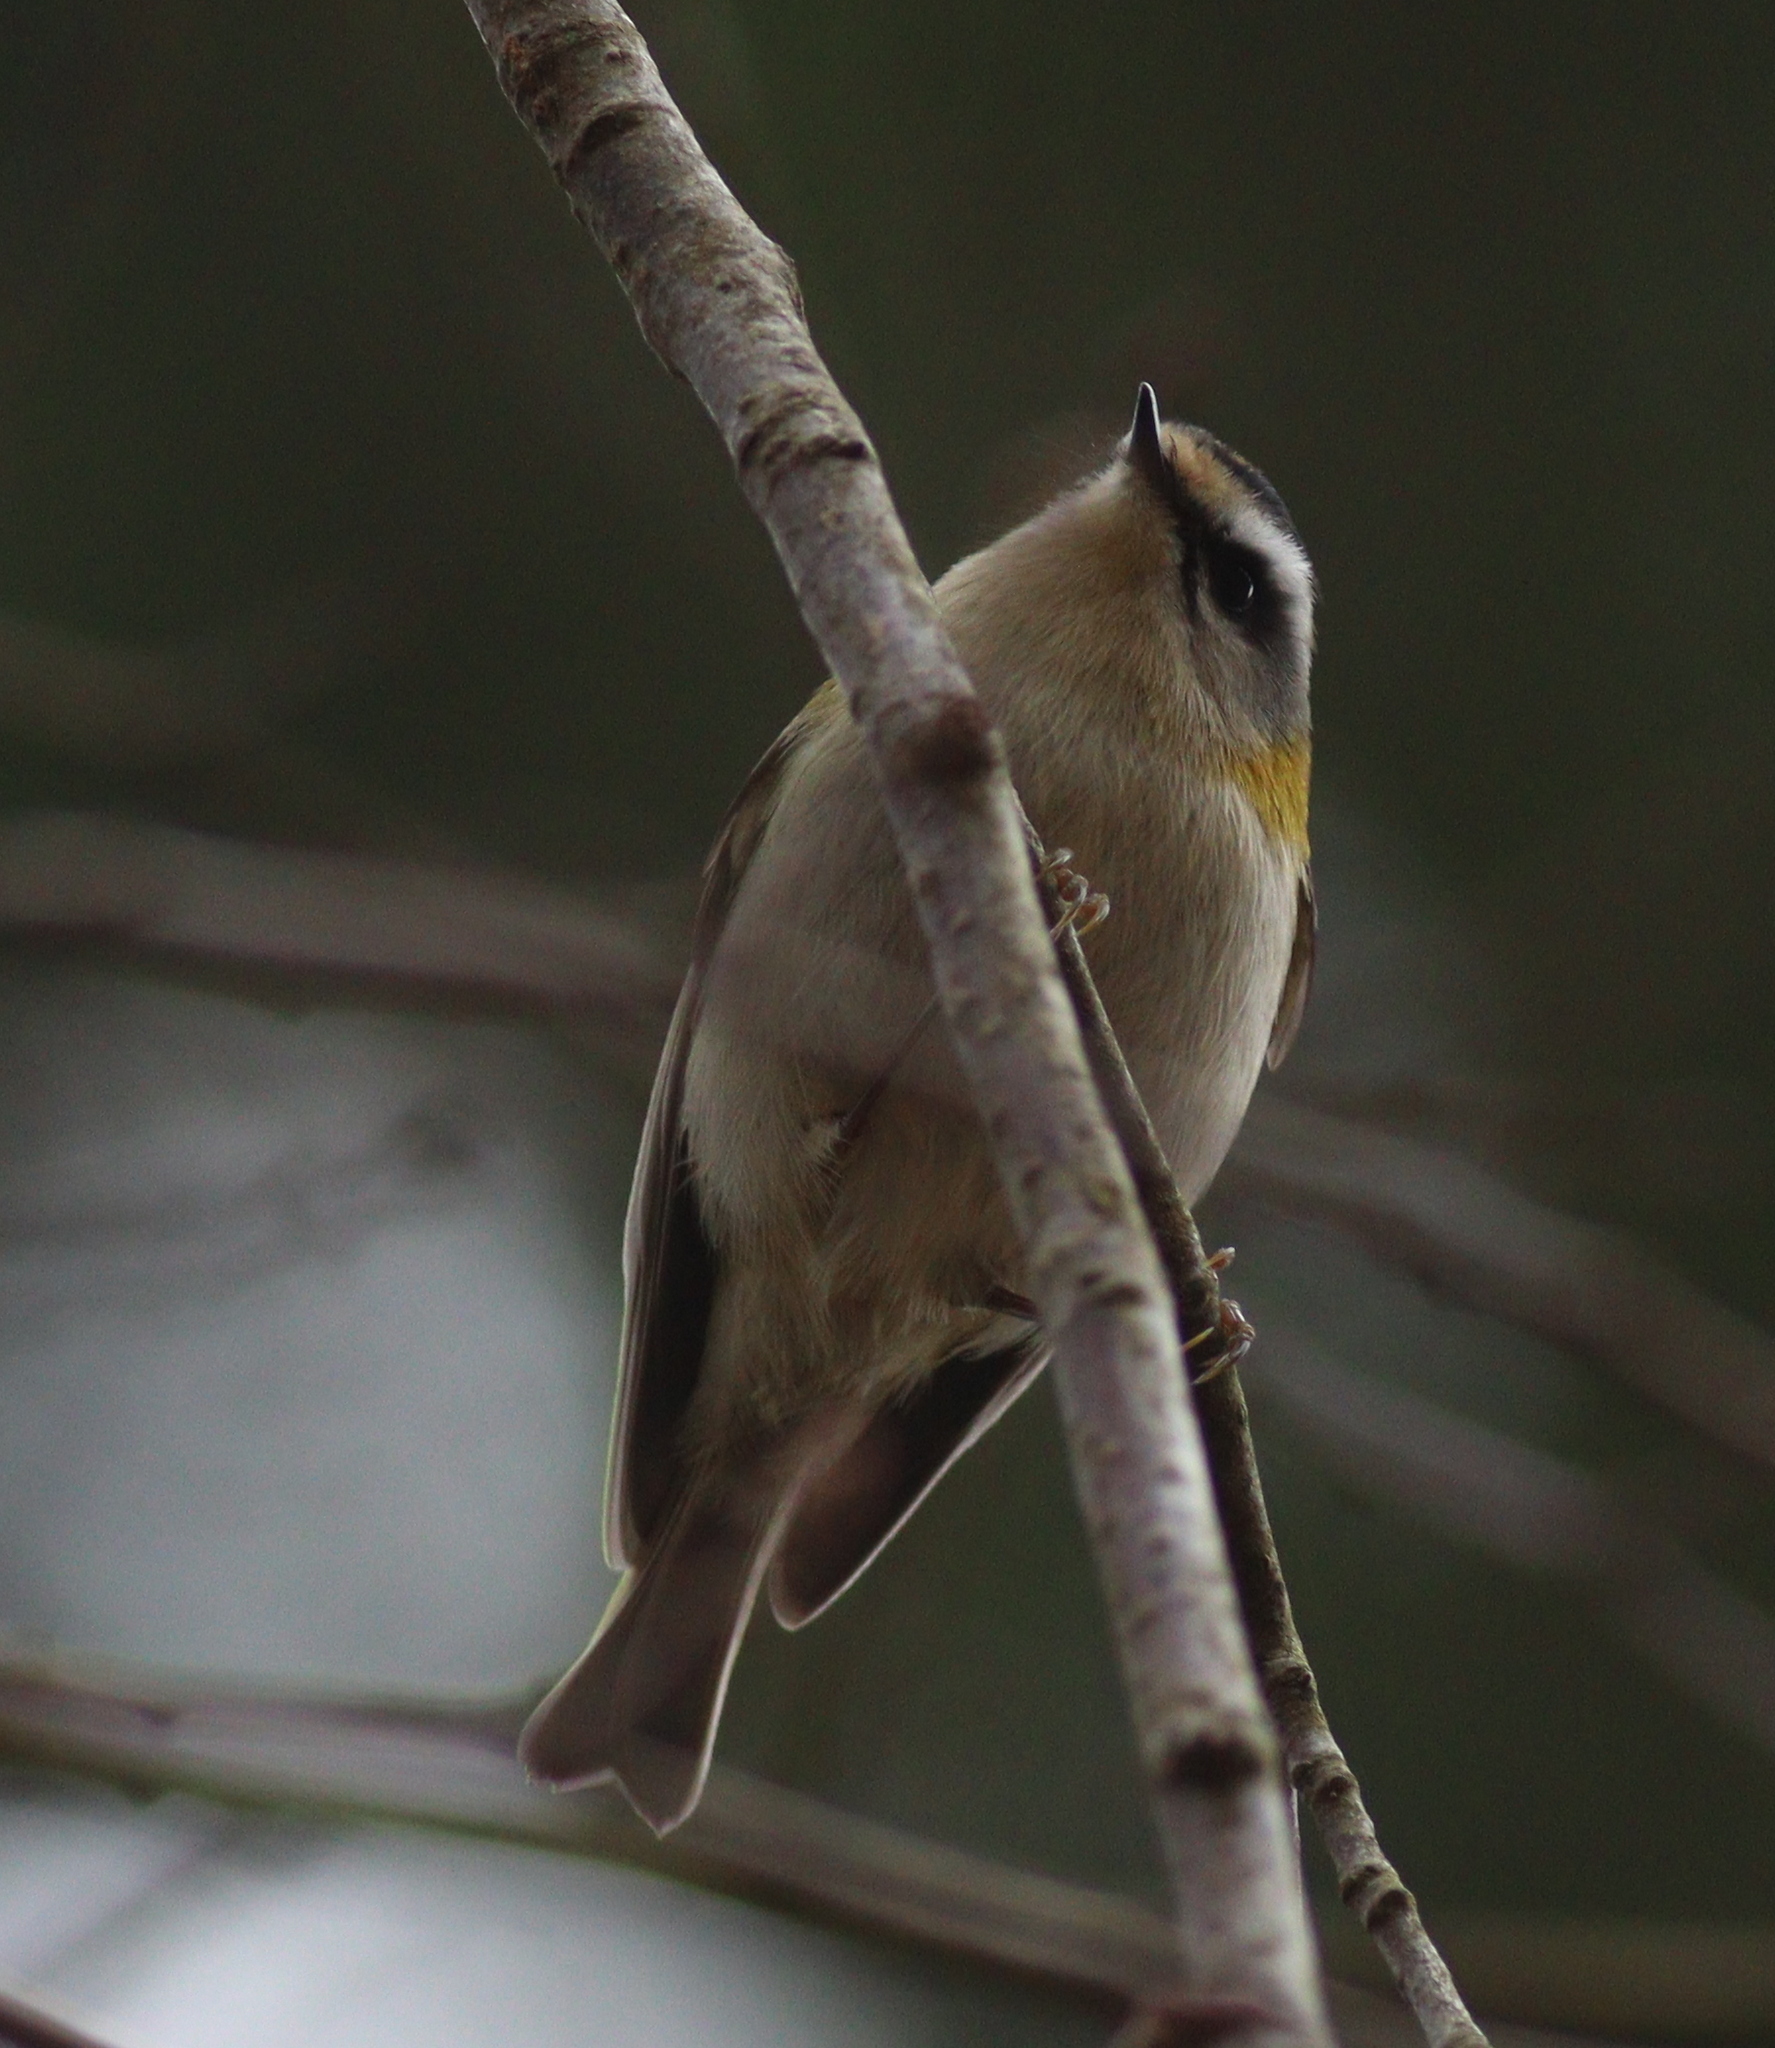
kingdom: Animalia
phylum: Chordata
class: Aves
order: Passeriformes
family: Regulidae
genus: Regulus
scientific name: Regulus ignicapilla
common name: Firecrest
